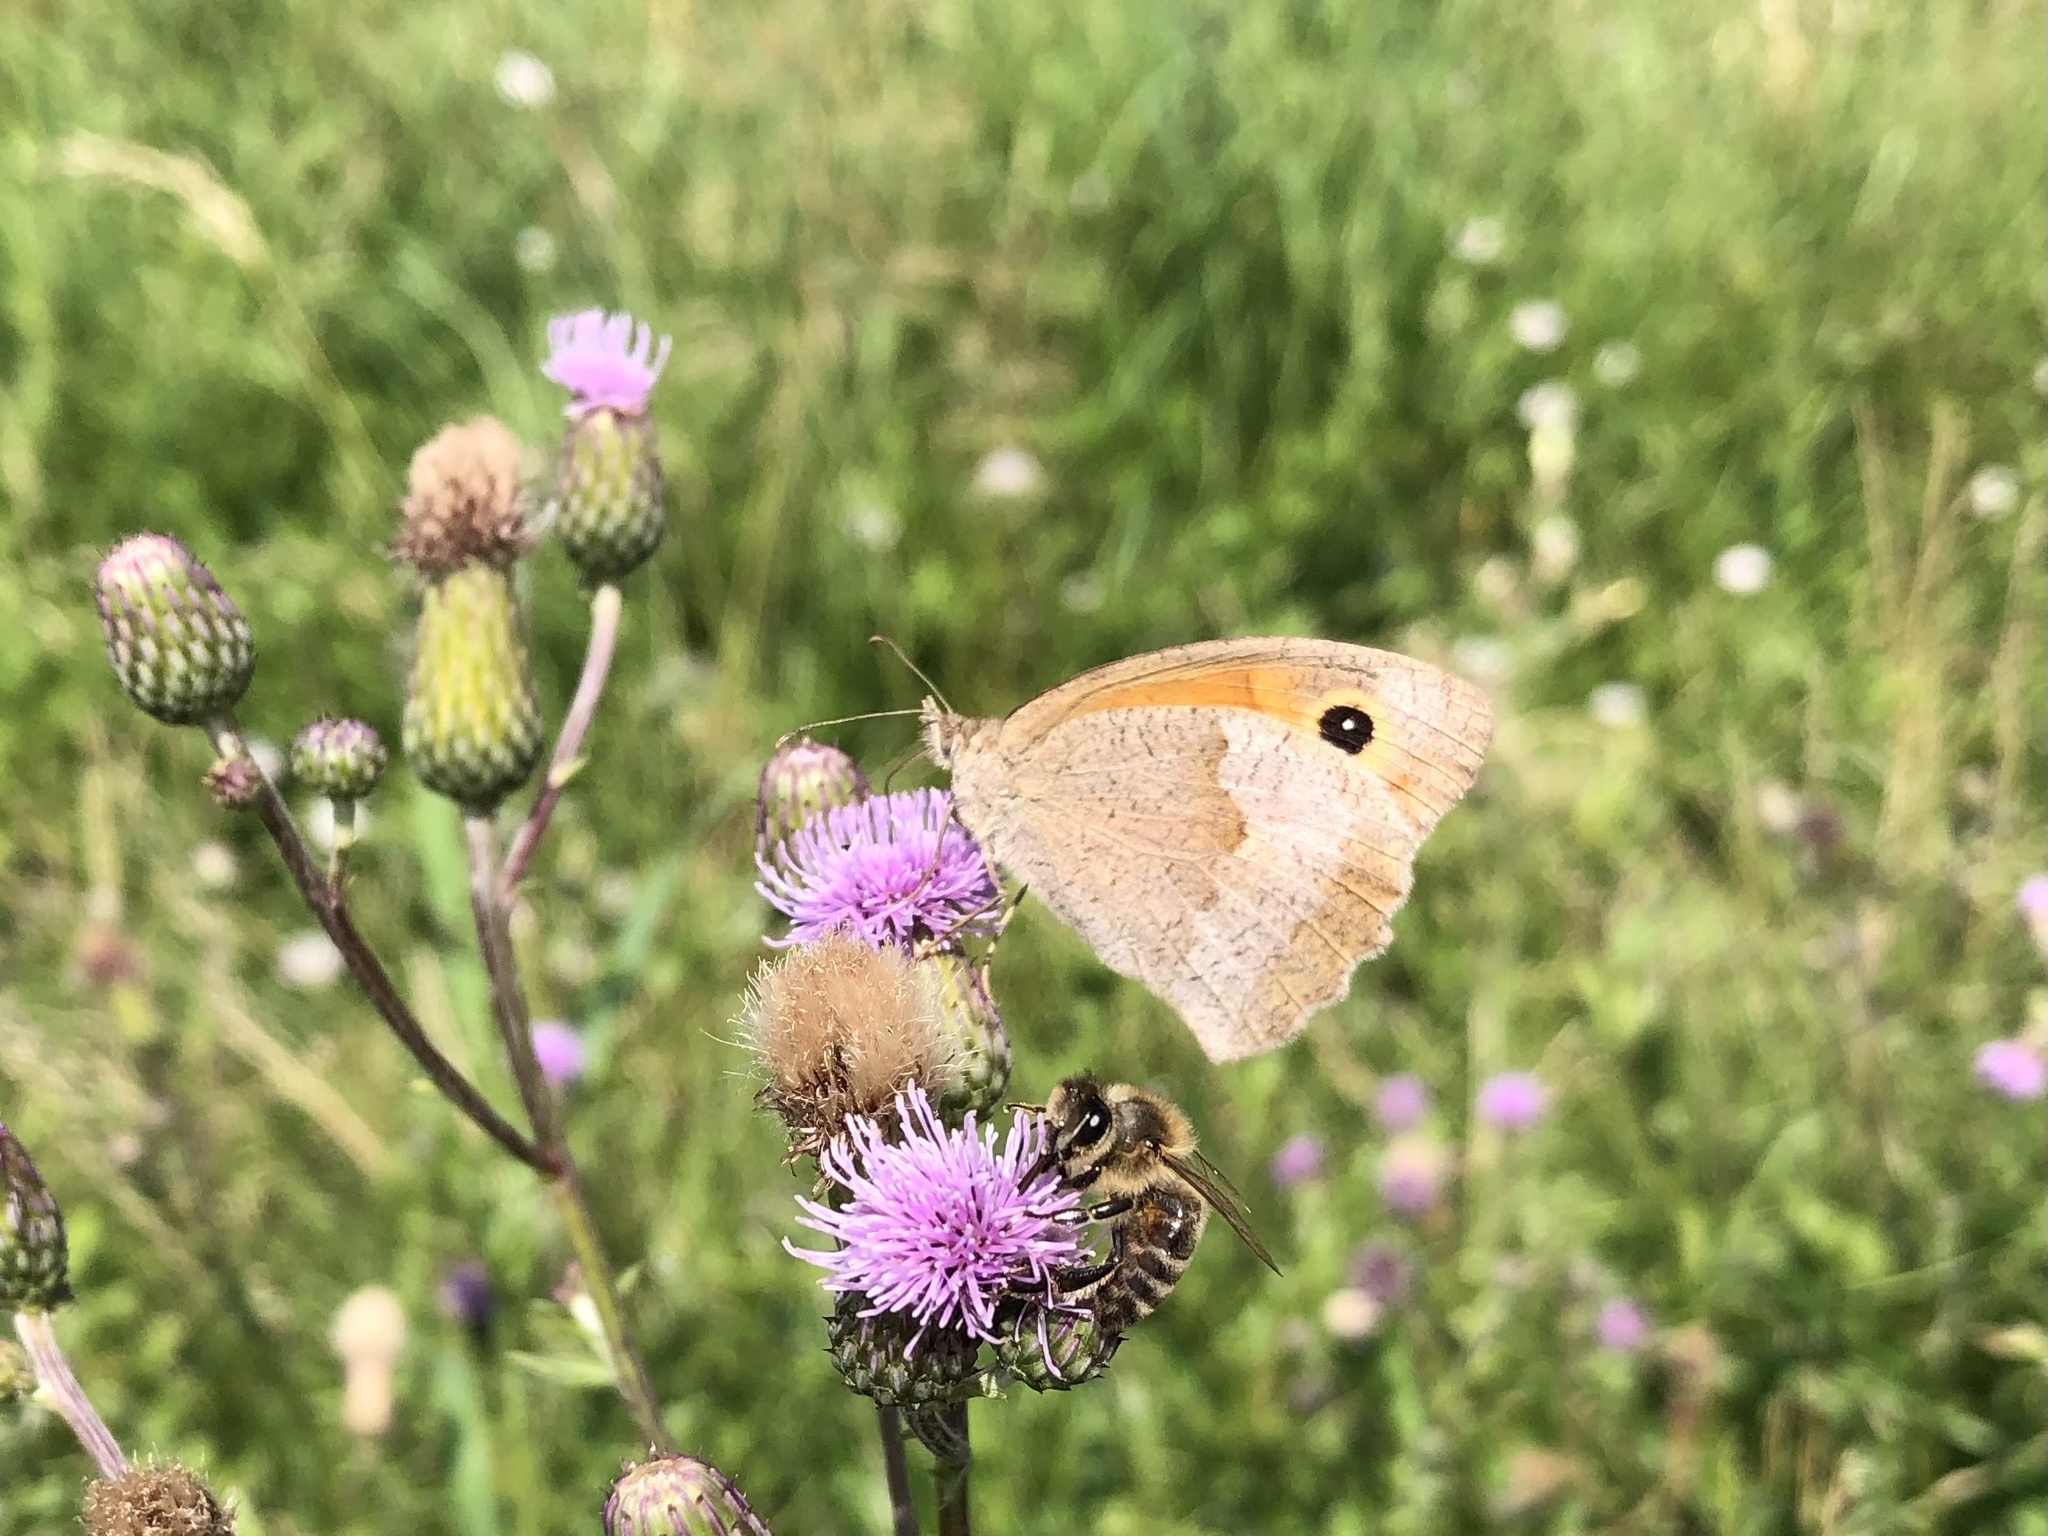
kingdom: Animalia
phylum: Arthropoda
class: Insecta
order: Lepidoptera
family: Nymphalidae
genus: Maniola
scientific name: Maniola jurtina
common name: Meadow brown
